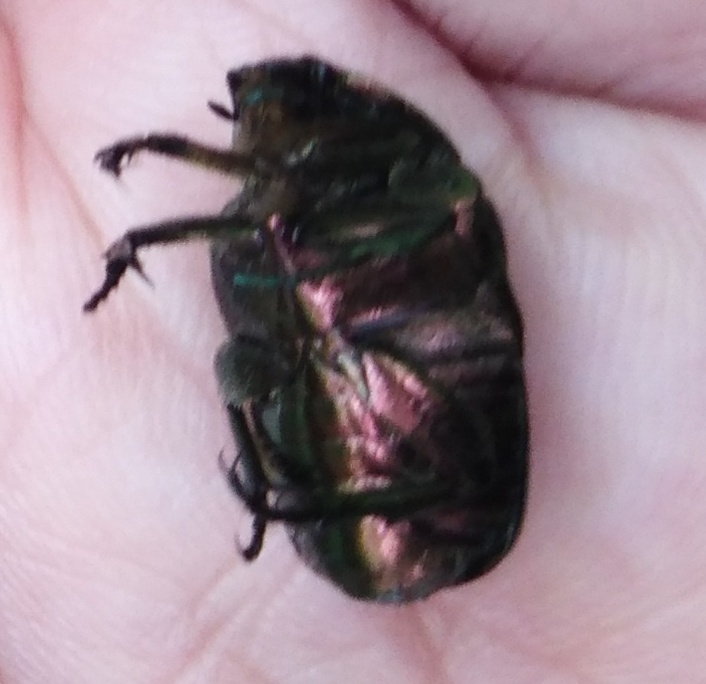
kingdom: Animalia
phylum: Arthropoda
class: Insecta
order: Coleoptera
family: Scarabaeidae
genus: Cetonia
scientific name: Cetonia aurata
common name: Rose chafer
